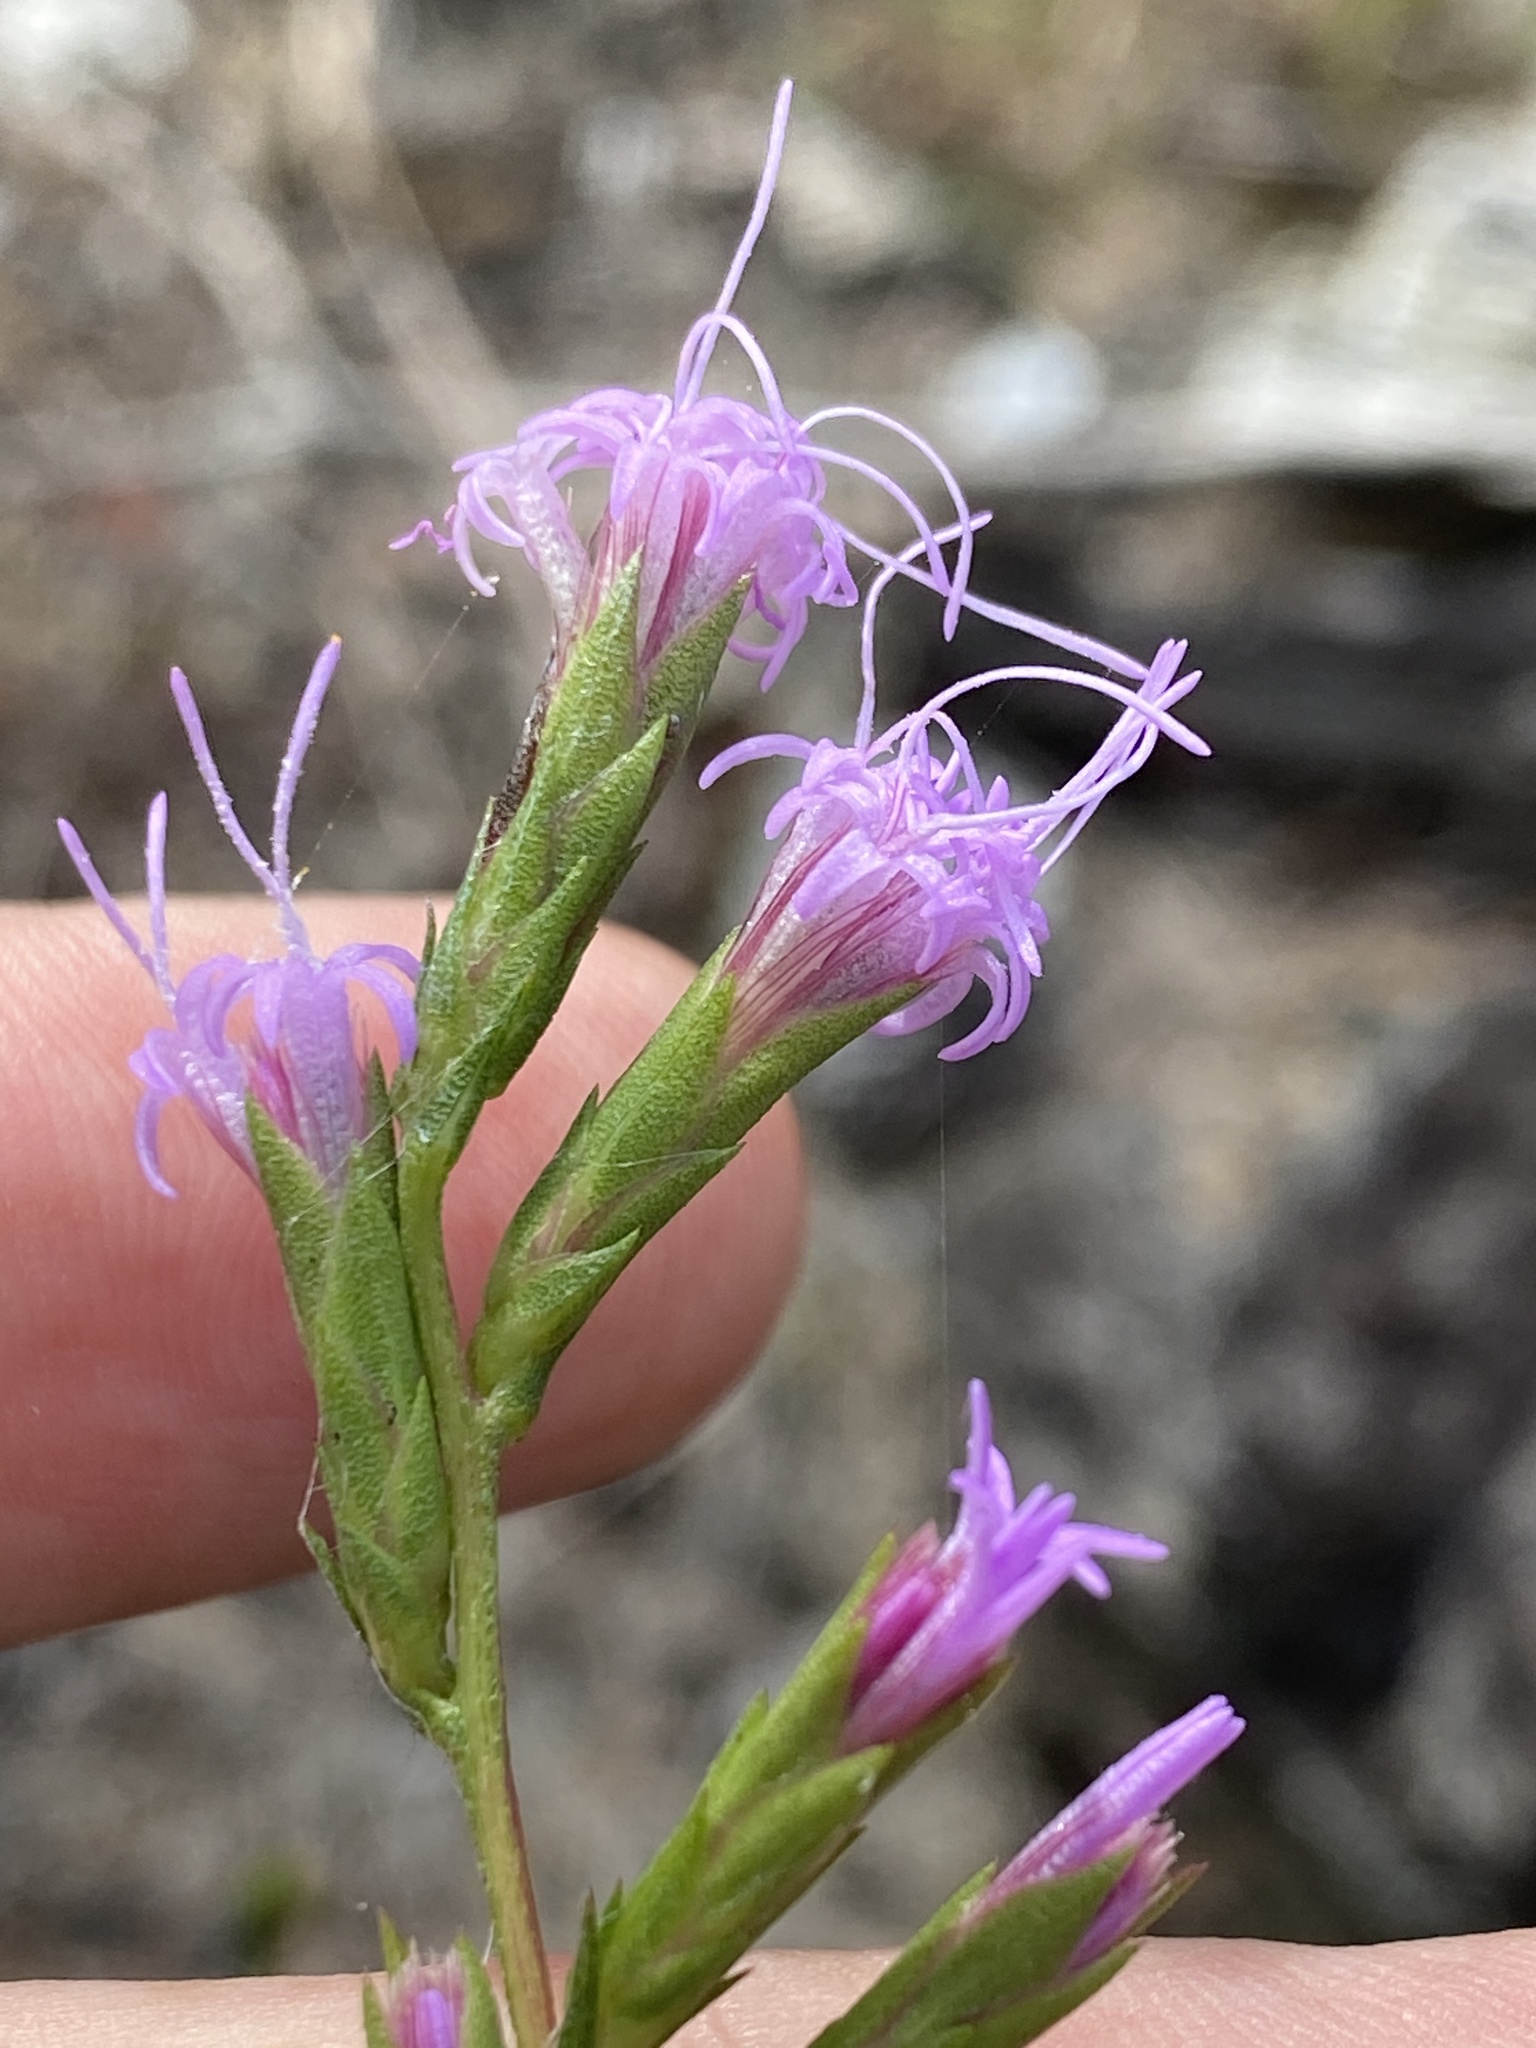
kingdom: Plantae
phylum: Tracheophyta
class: Magnoliopsida
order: Asterales
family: Asteraceae
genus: Liatris
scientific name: Liatris cokeri
